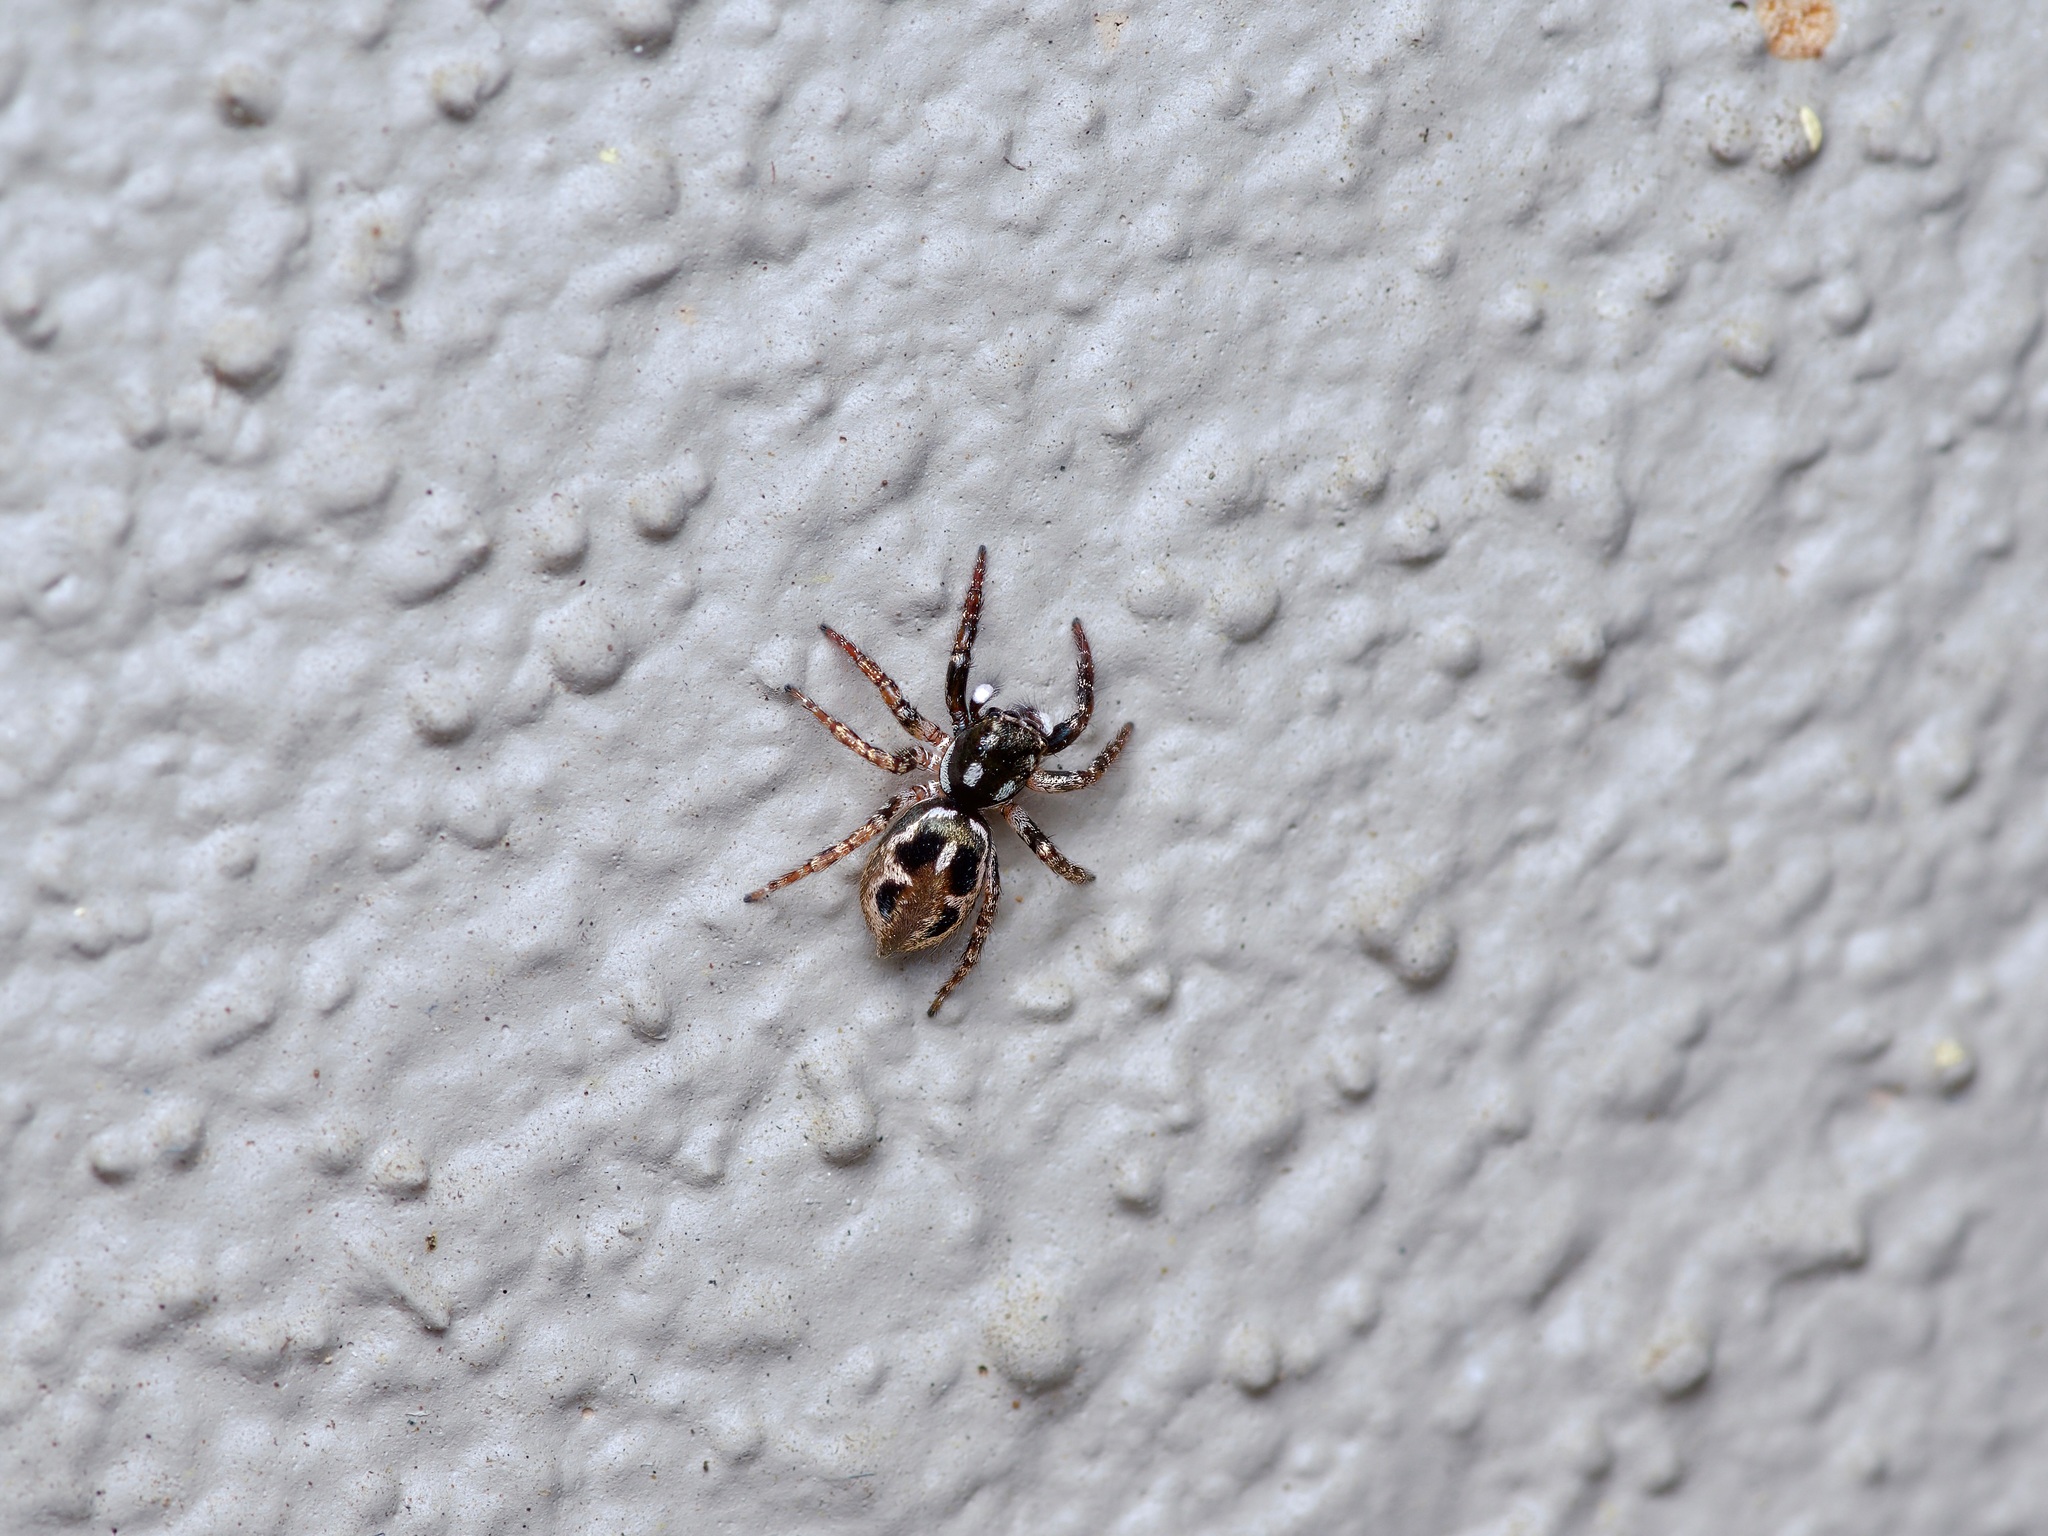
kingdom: Animalia
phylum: Arthropoda
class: Arachnida
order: Araneae
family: Salticidae
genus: Anasaitis
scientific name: Anasaitis canosa
